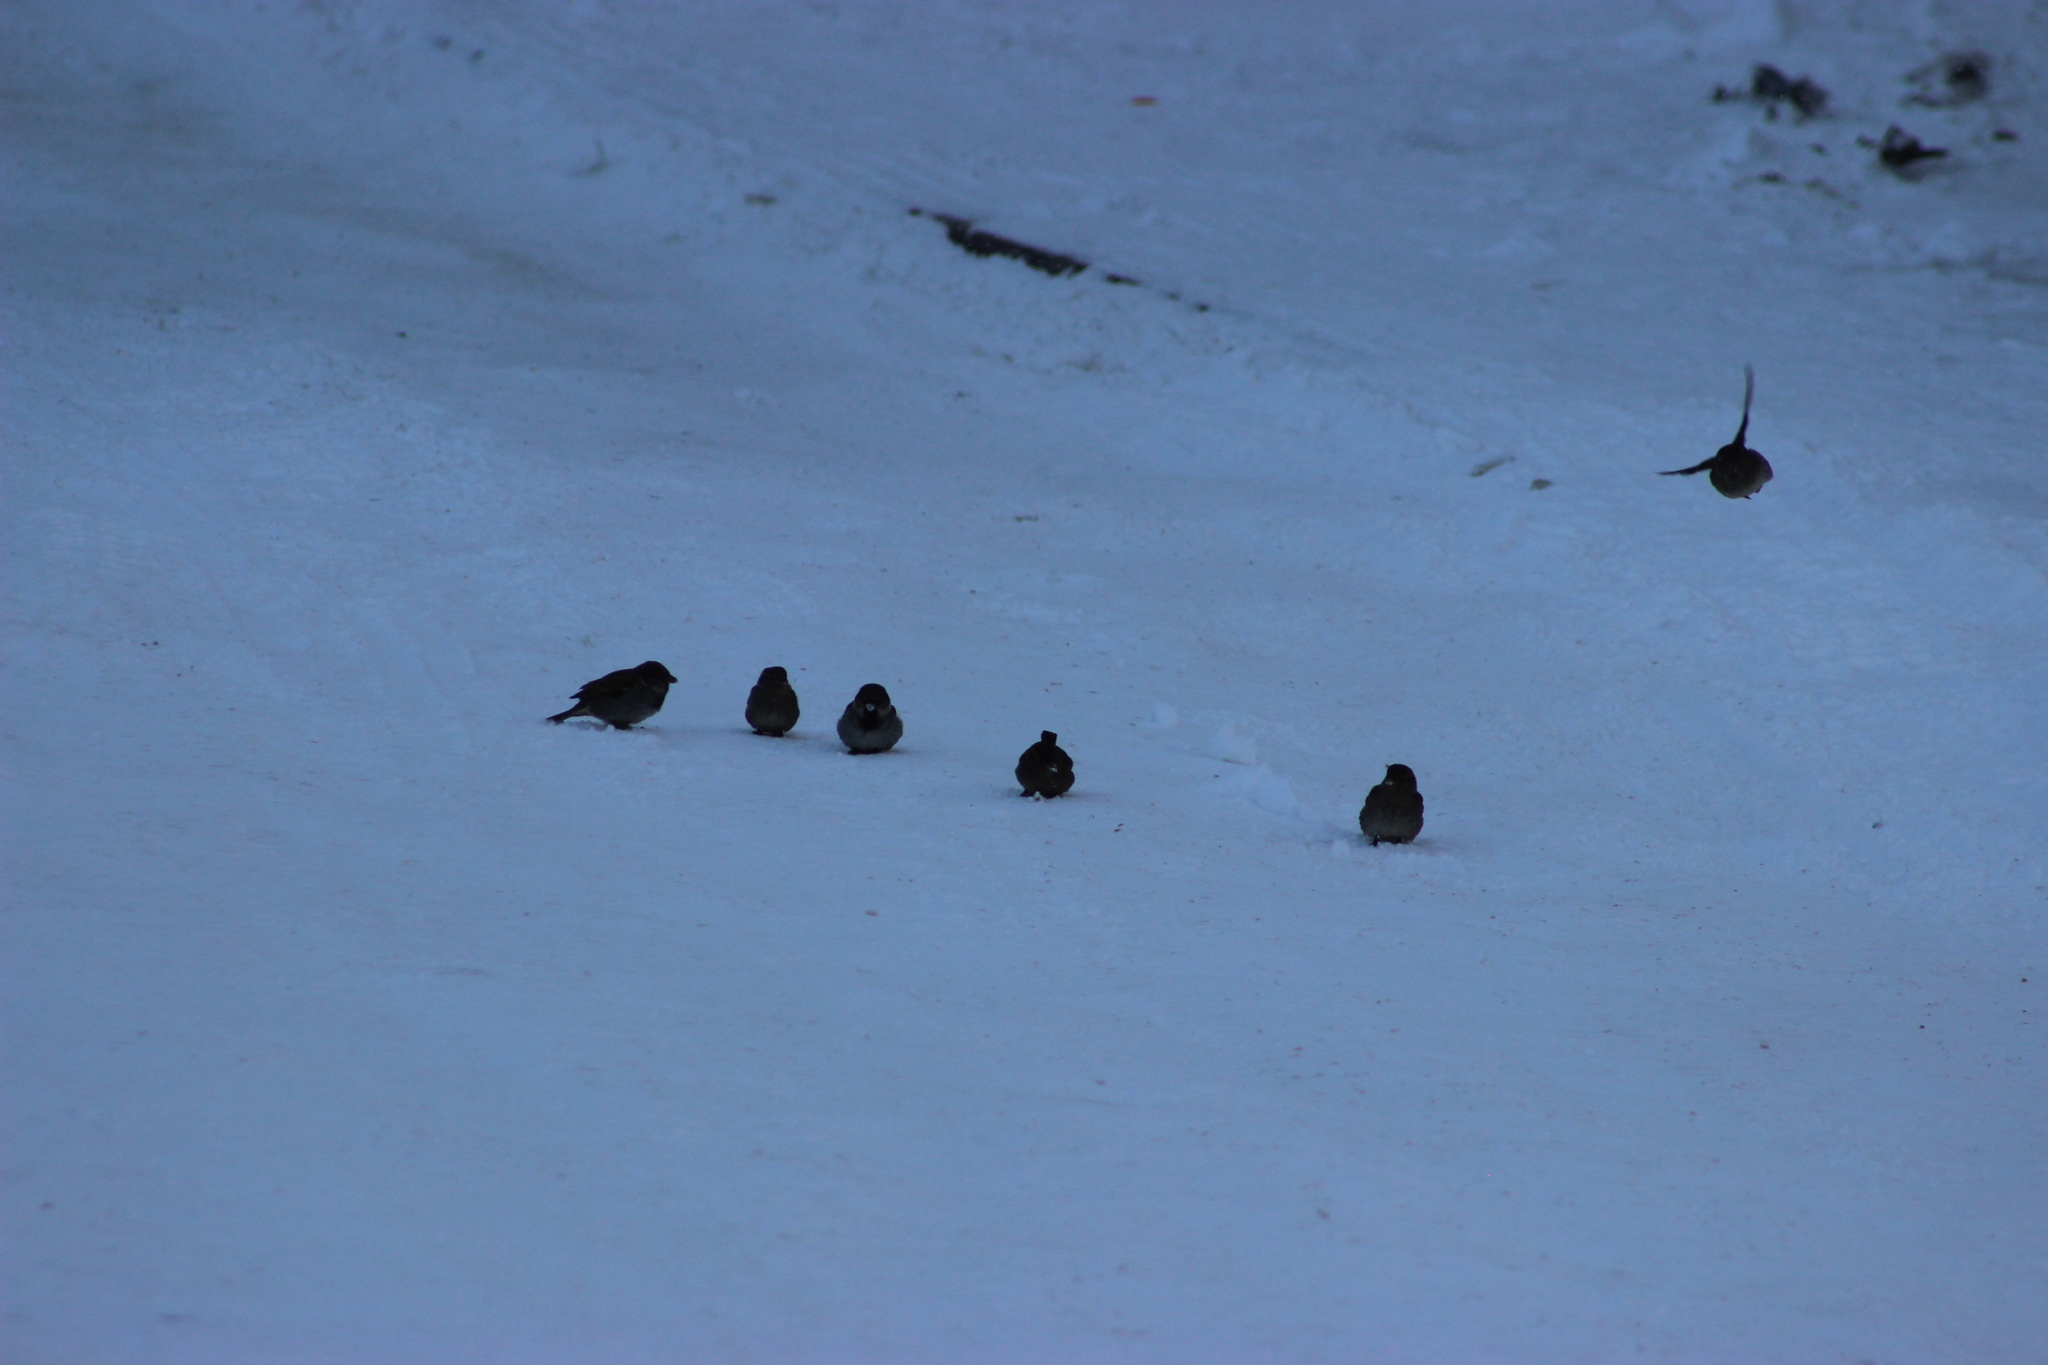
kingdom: Animalia
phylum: Chordata
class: Aves
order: Passeriformes
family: Passeridae
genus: Passer
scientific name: Passer domesticus
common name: House sparrow
